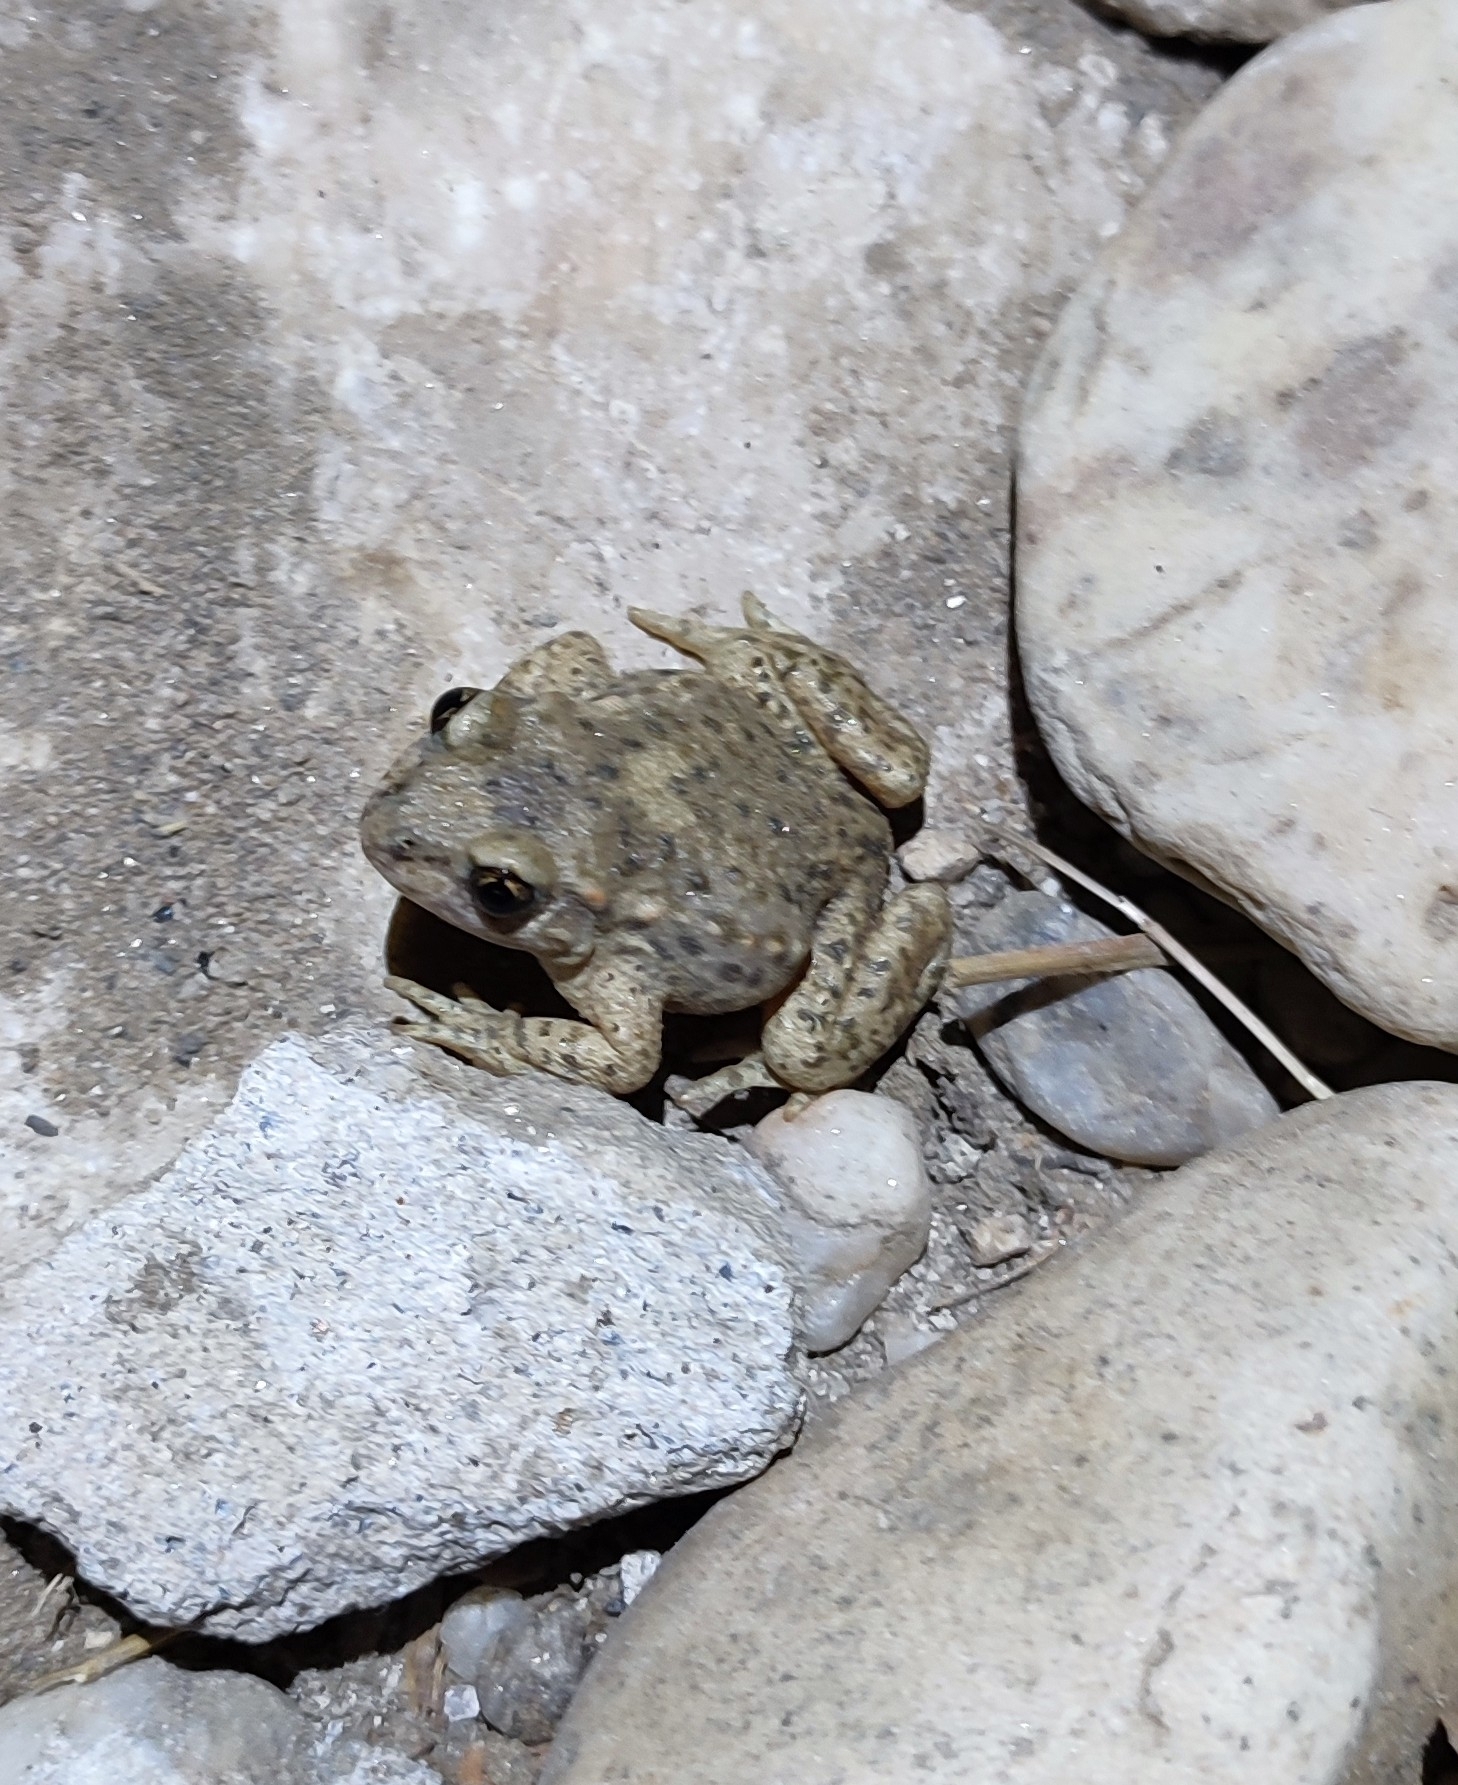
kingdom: Animalia
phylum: Chordata
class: Amphibia
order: Anura
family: Alytidae
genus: Alytes
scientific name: Alytes obstetricans
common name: Midwife toad
